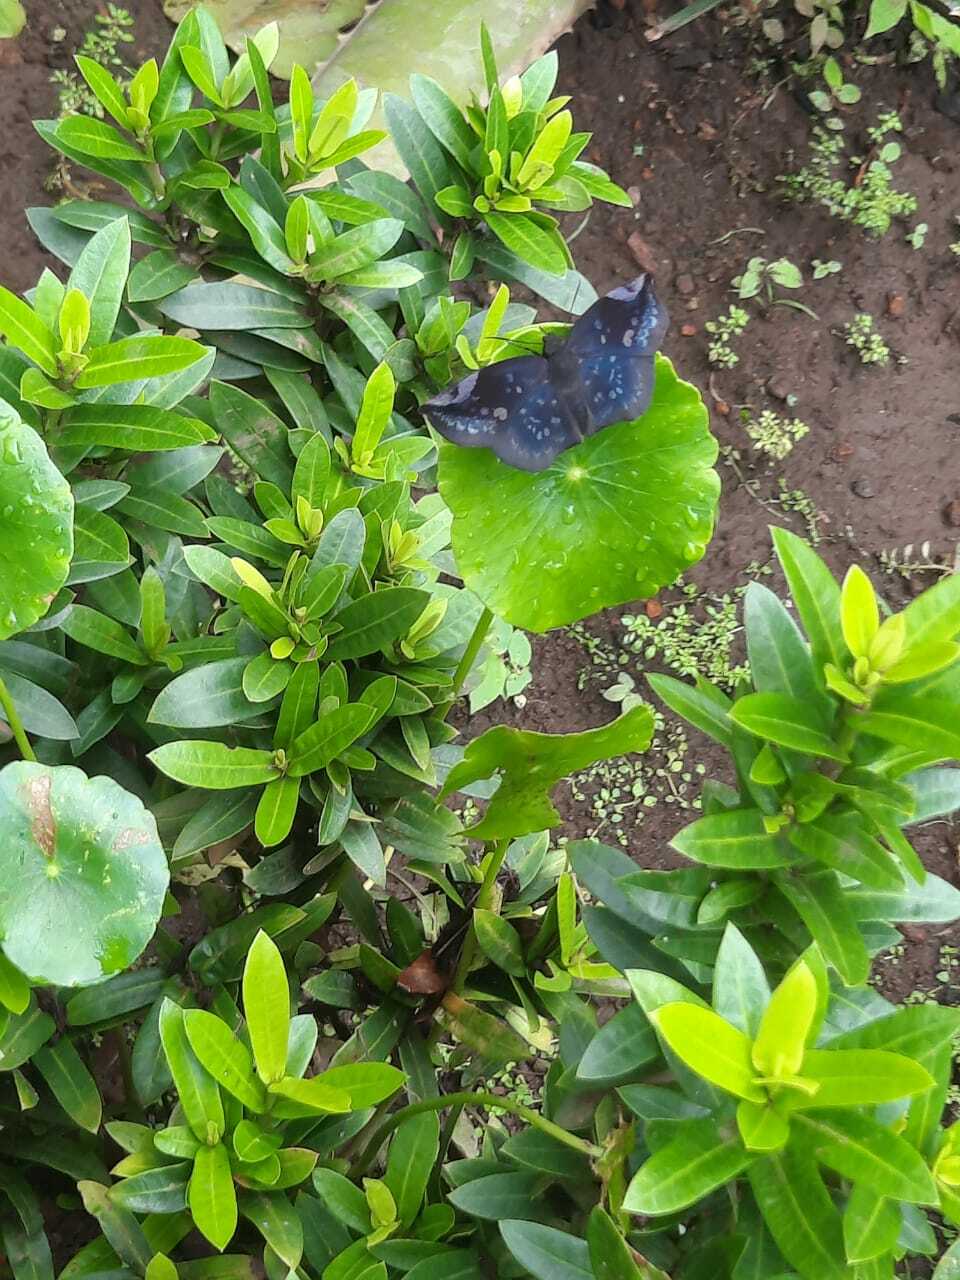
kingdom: Animalia
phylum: Arthropoda
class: Insecta
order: Lepidoptera
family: Hesperiidae
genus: Achlyodes
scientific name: Achlyodes thraso
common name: Sickle-winged skipper
